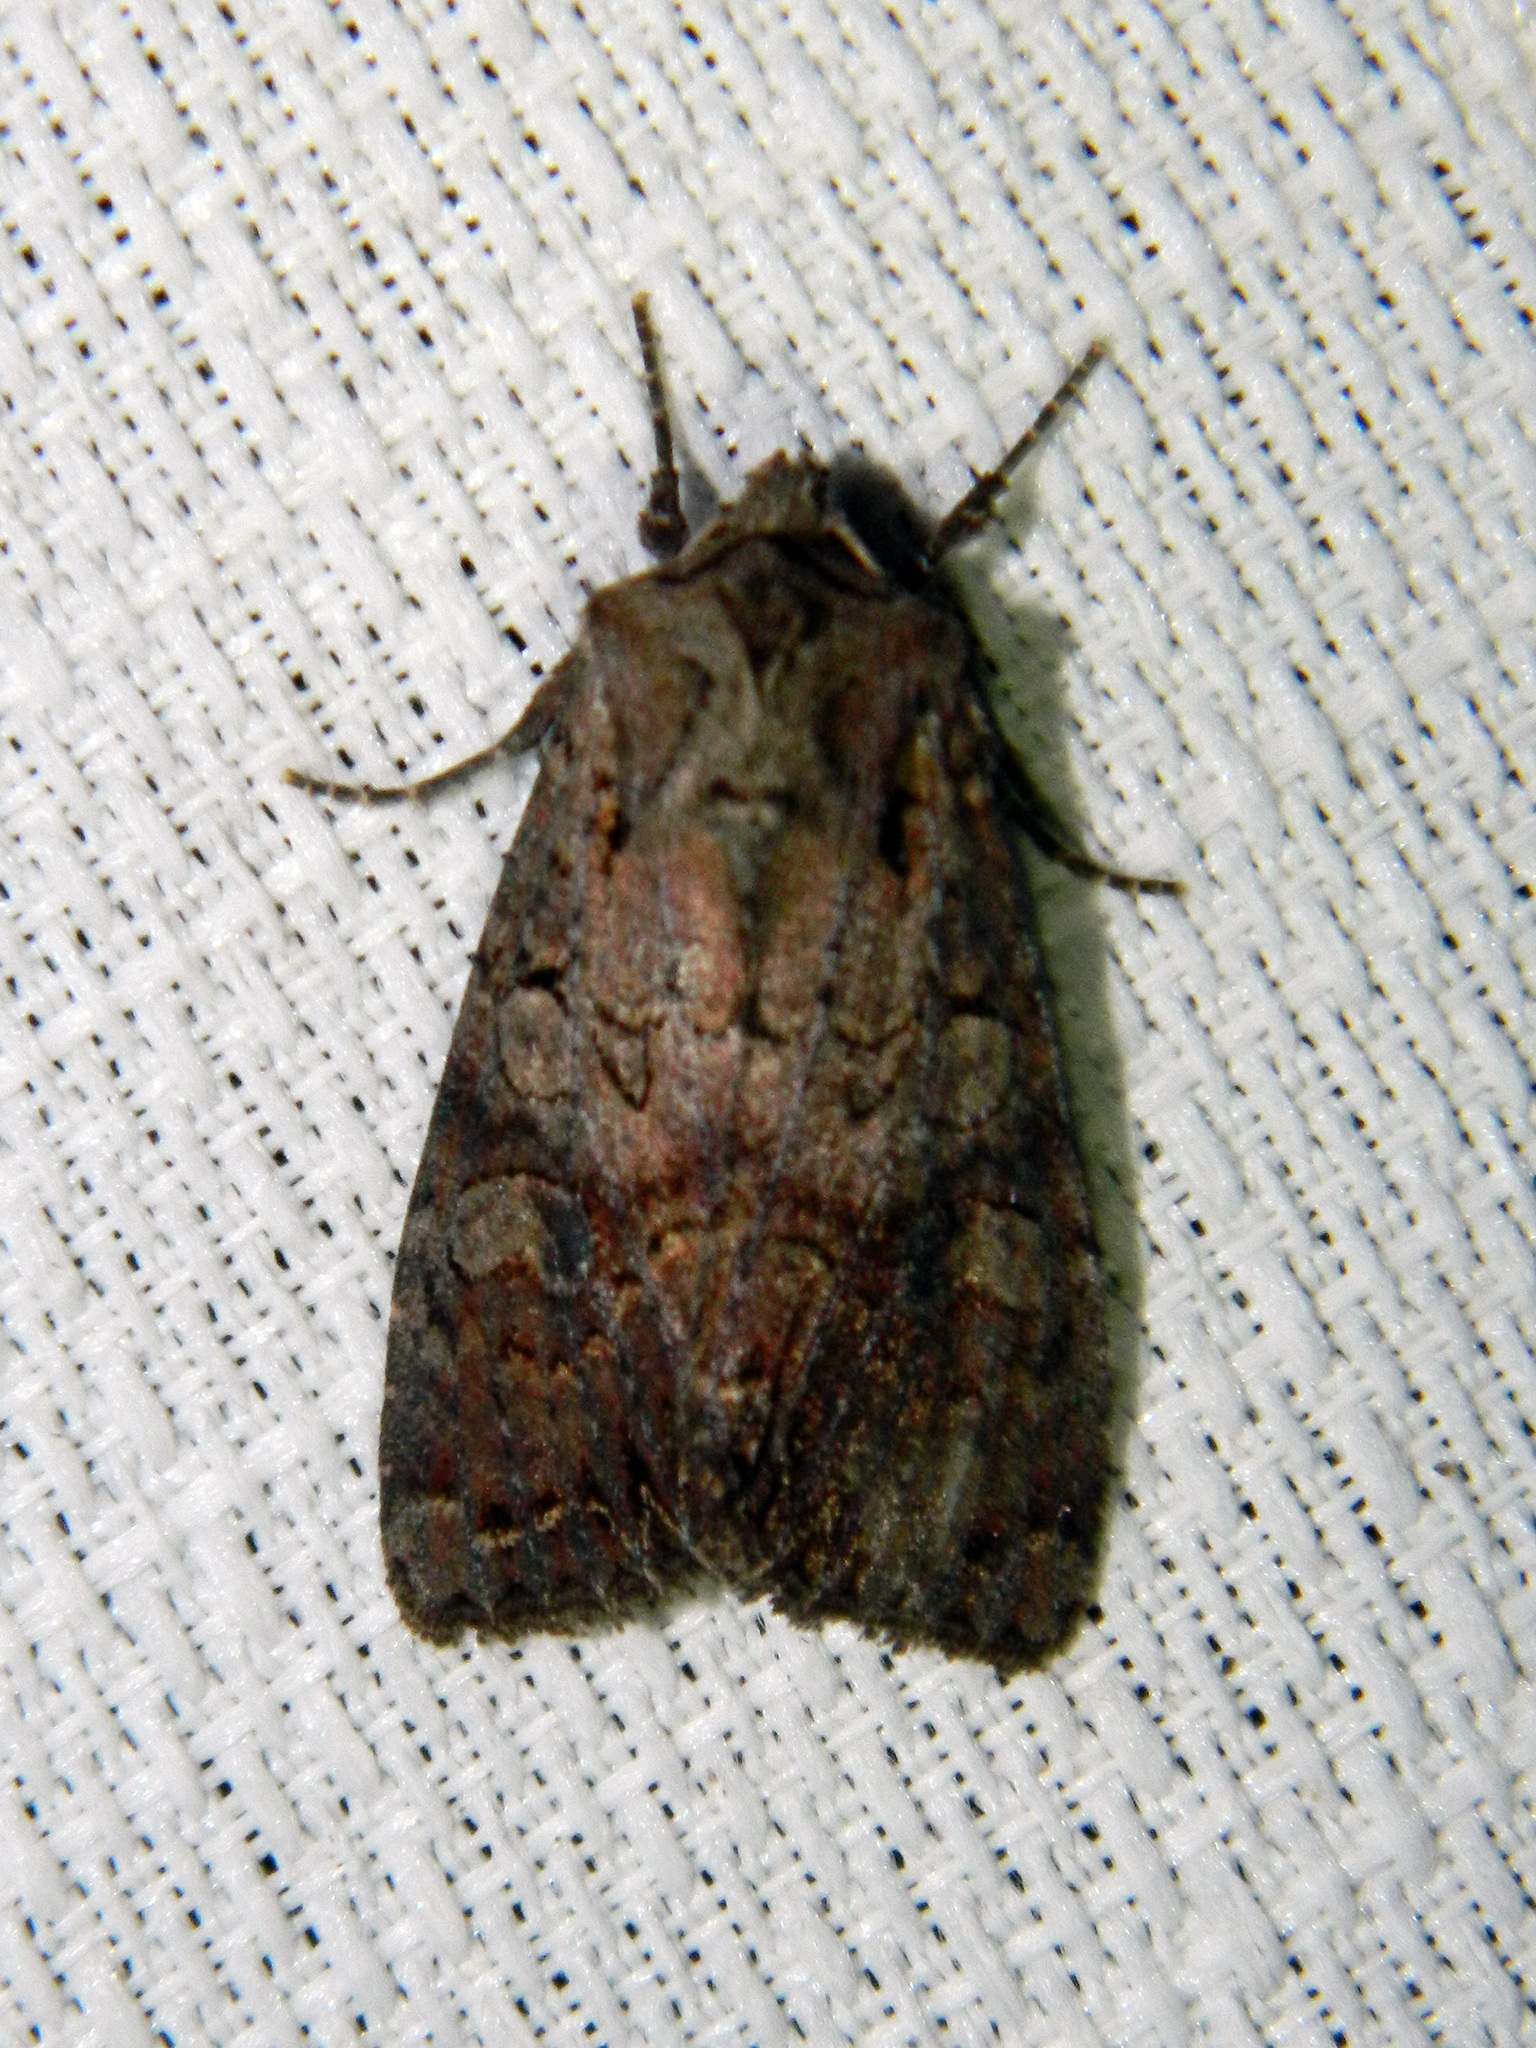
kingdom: Animalia
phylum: Arthropoda
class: Insecta
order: Lepidoptera
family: Noctuidae
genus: Lacanobia
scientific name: Lacanobia radix
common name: Garden arches moth
